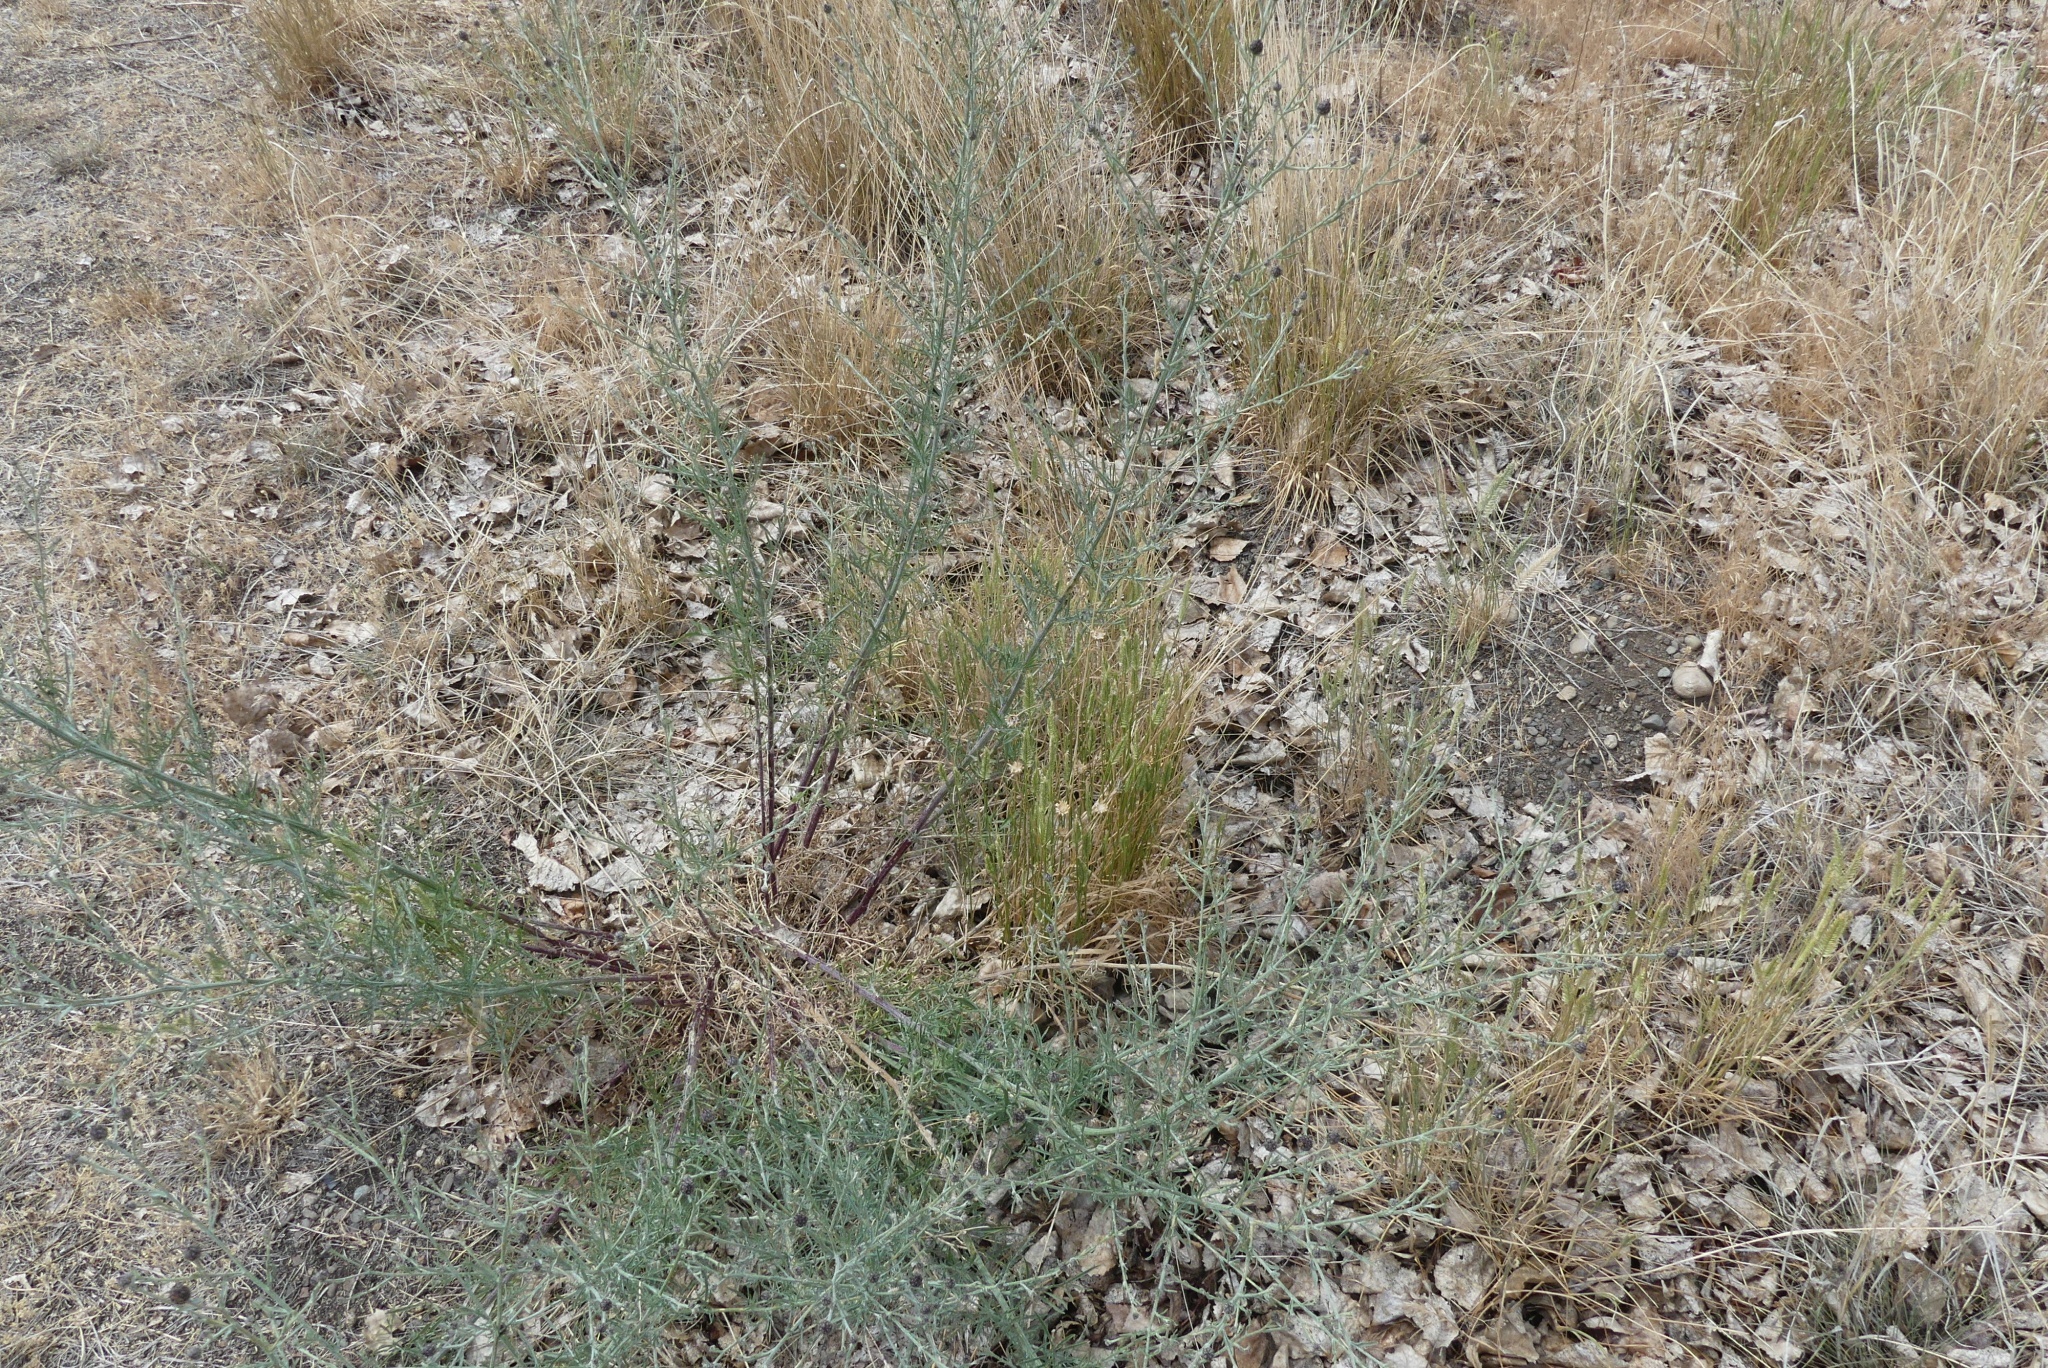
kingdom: Plantae
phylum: Tracheophyta
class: Liliopsida
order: Poales
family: Poaceae
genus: Agropyron
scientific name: Agropyron cristatum
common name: Crested wheatgrass
